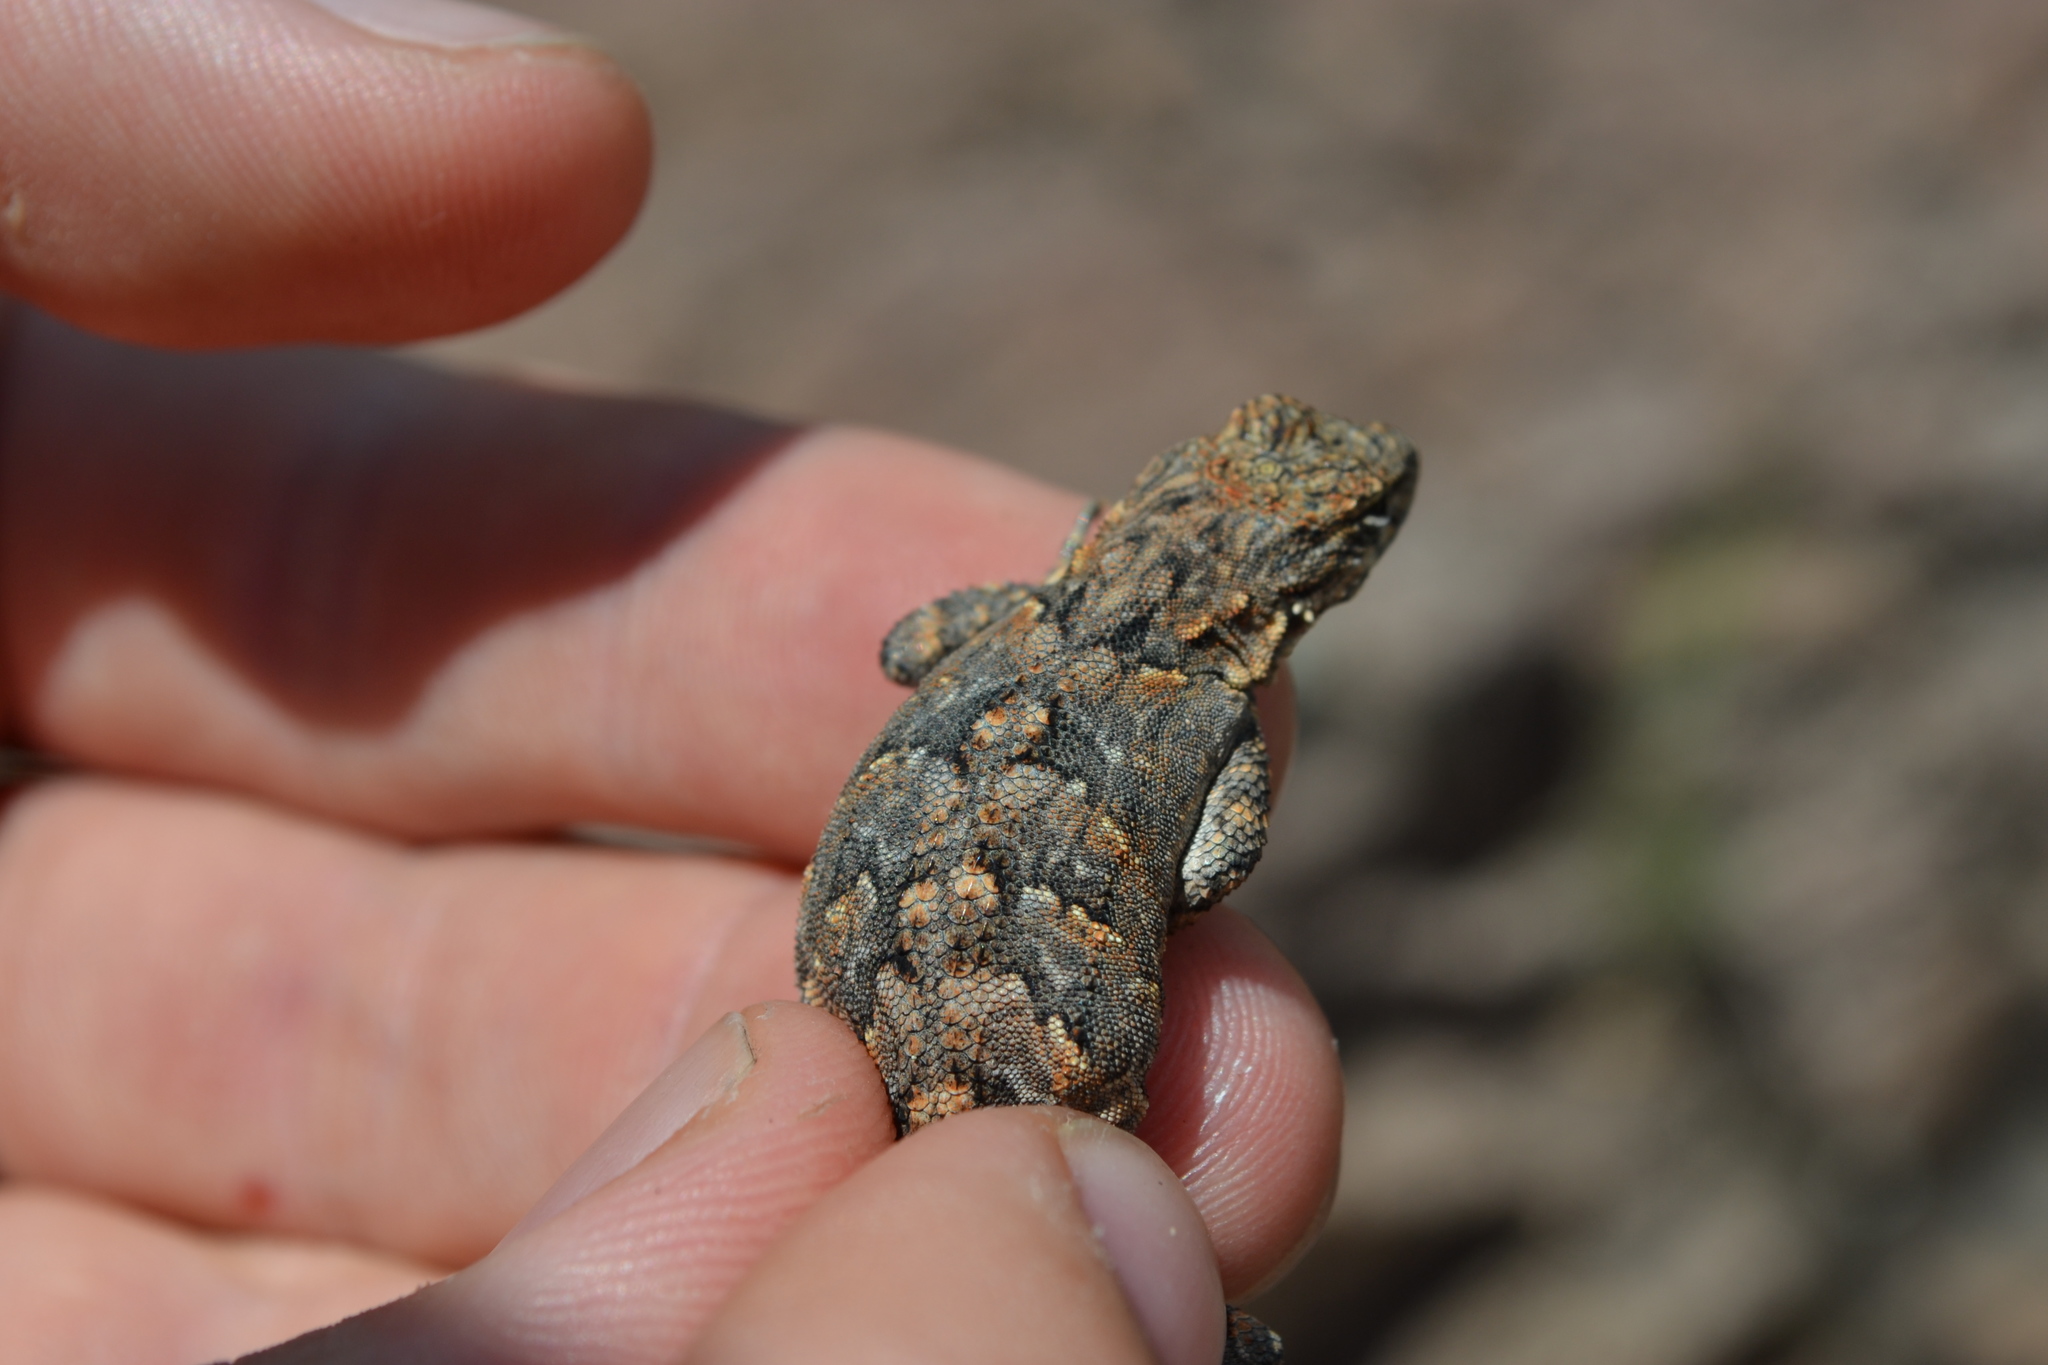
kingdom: Animalia
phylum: Chordata
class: Squamata
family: Phrynosomatidae
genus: Urosaurus
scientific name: Urosaurus ornatus
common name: Ornate tree lizard
